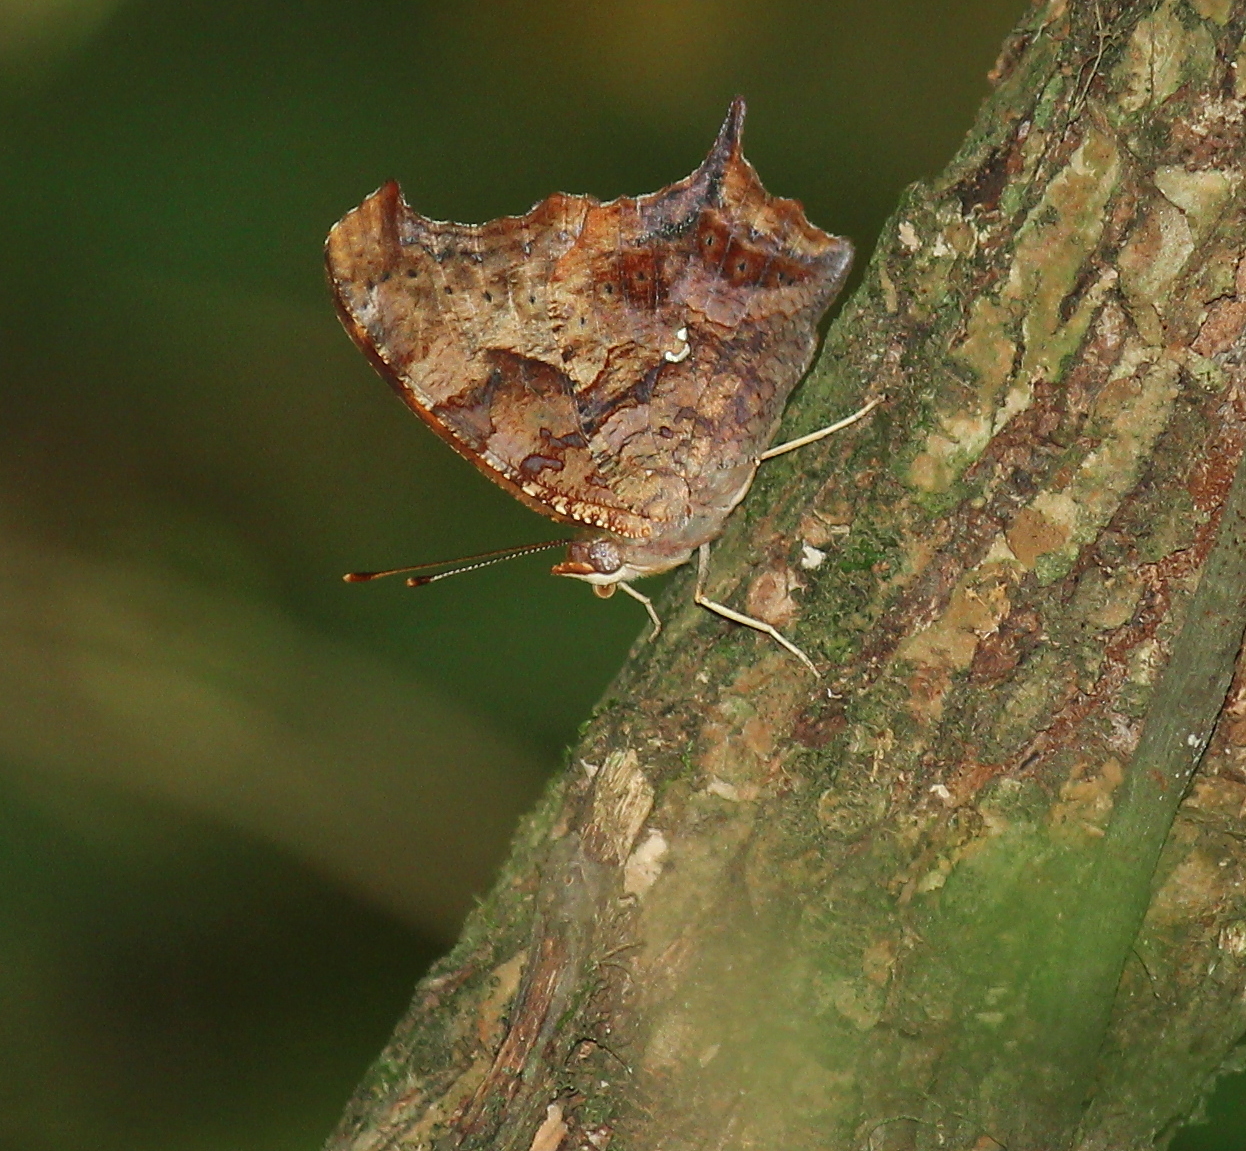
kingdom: Animalia
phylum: Arthropoda
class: Insecta
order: Lepidoptera
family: Nymphalidae
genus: Polygonia
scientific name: Polygonia interrogationis
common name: Question mark
